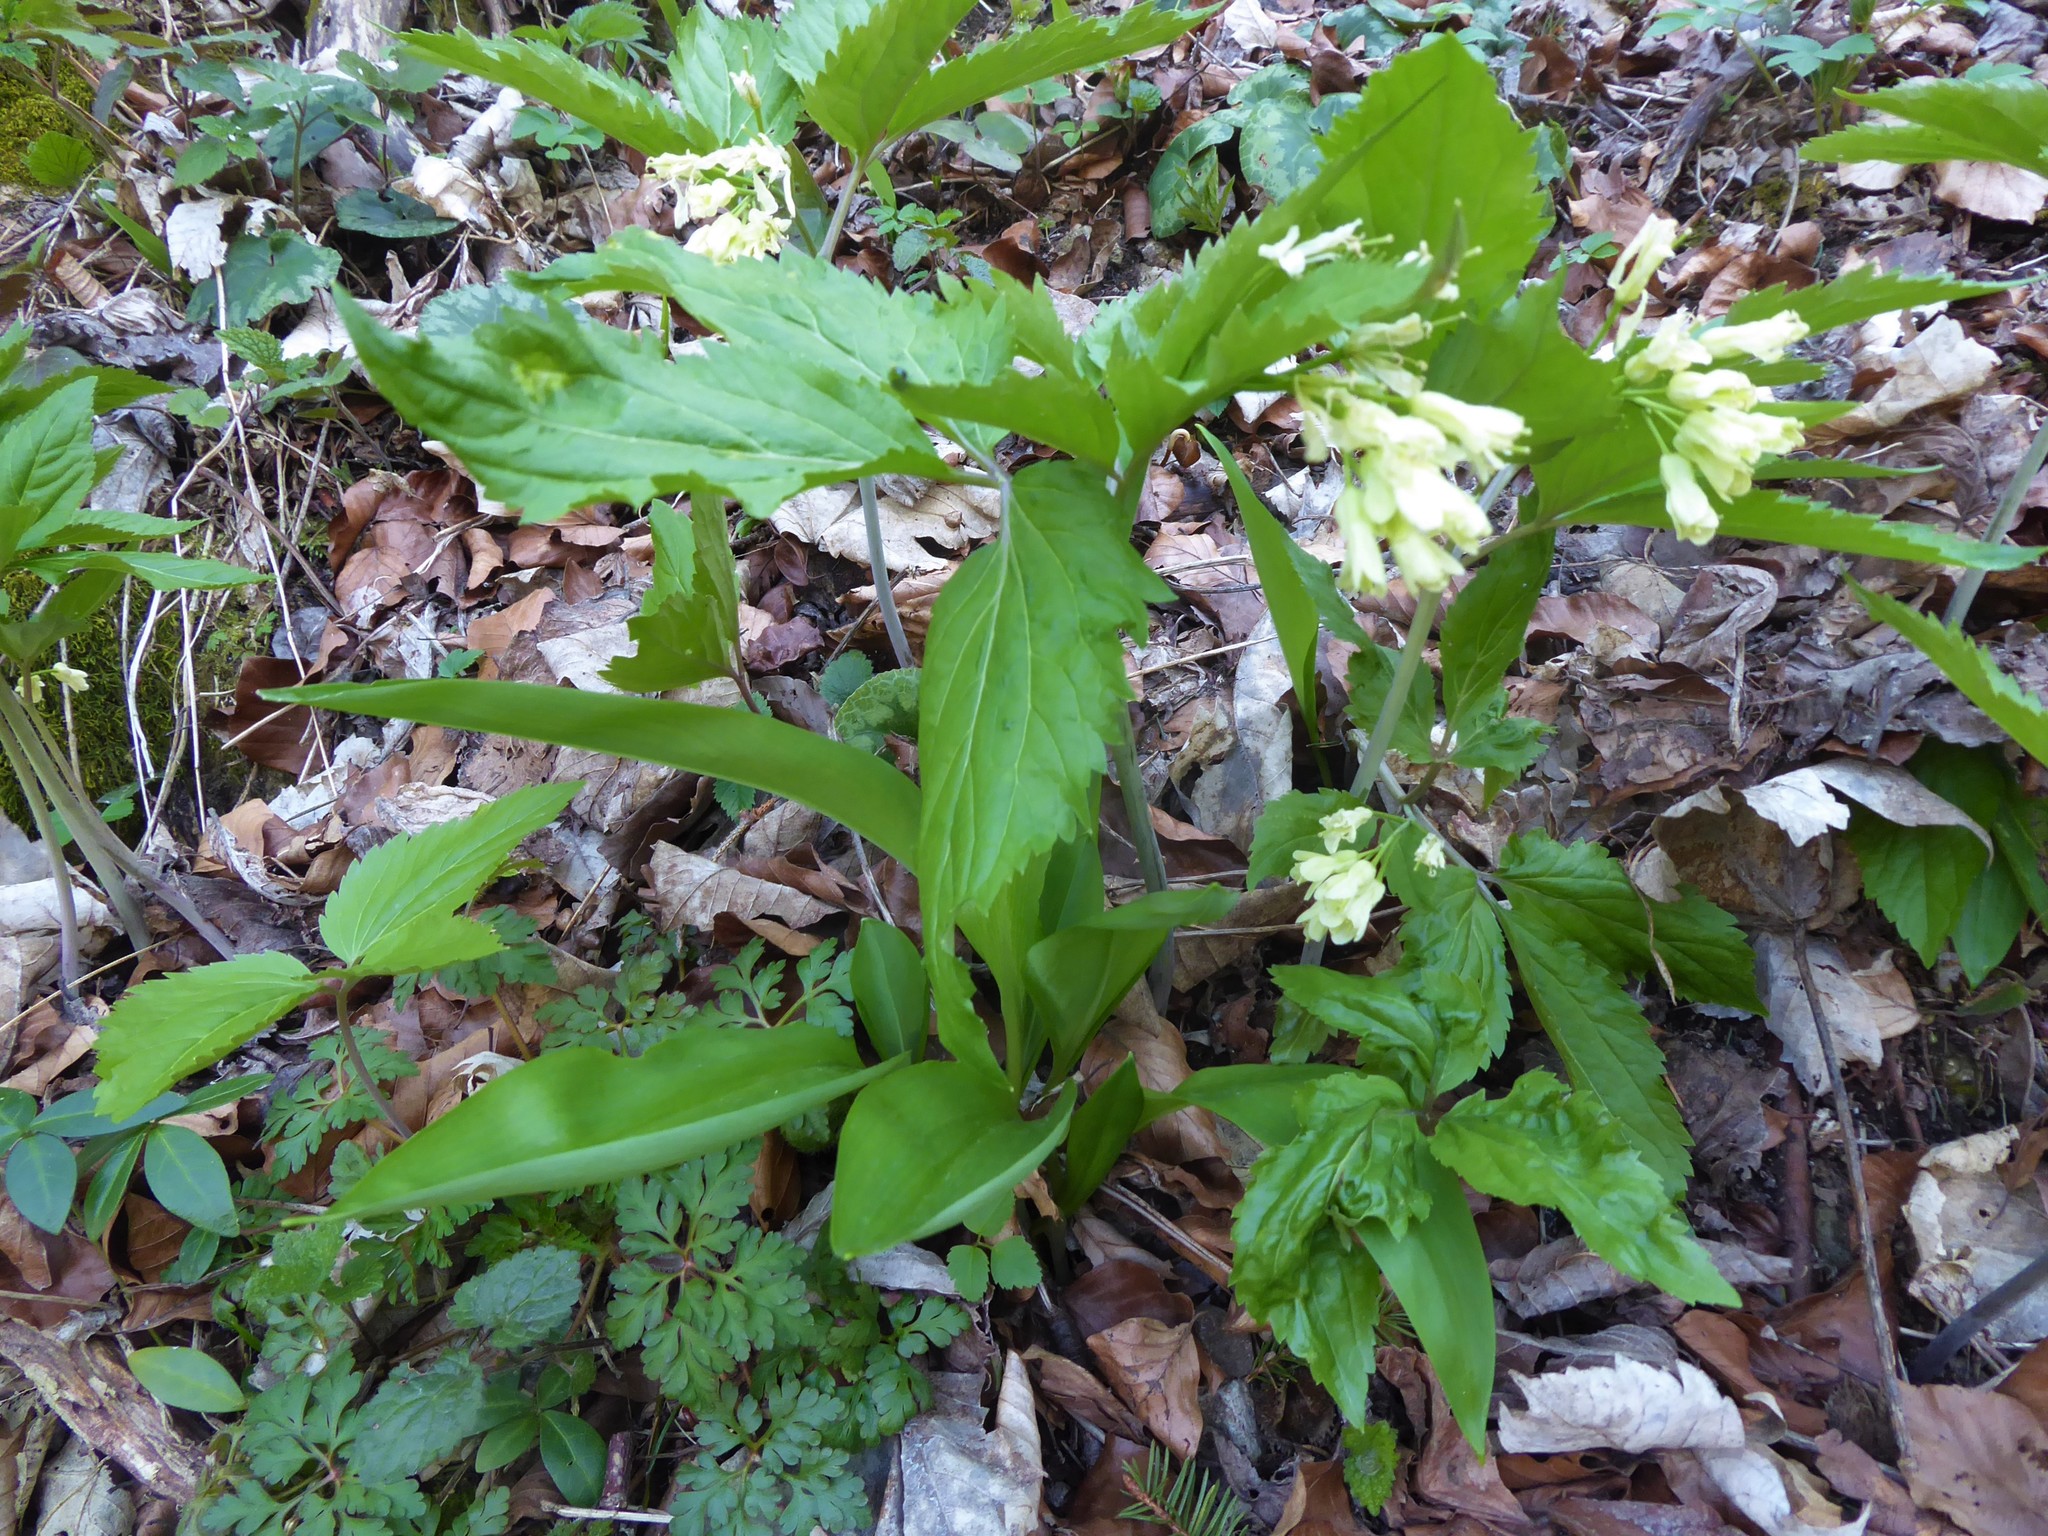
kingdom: Plantae
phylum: Tracheophyta
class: Magnoliopsida
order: Brassicales
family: Brassicaceae
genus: Cardamine
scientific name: Cardamine enneaphyllos
